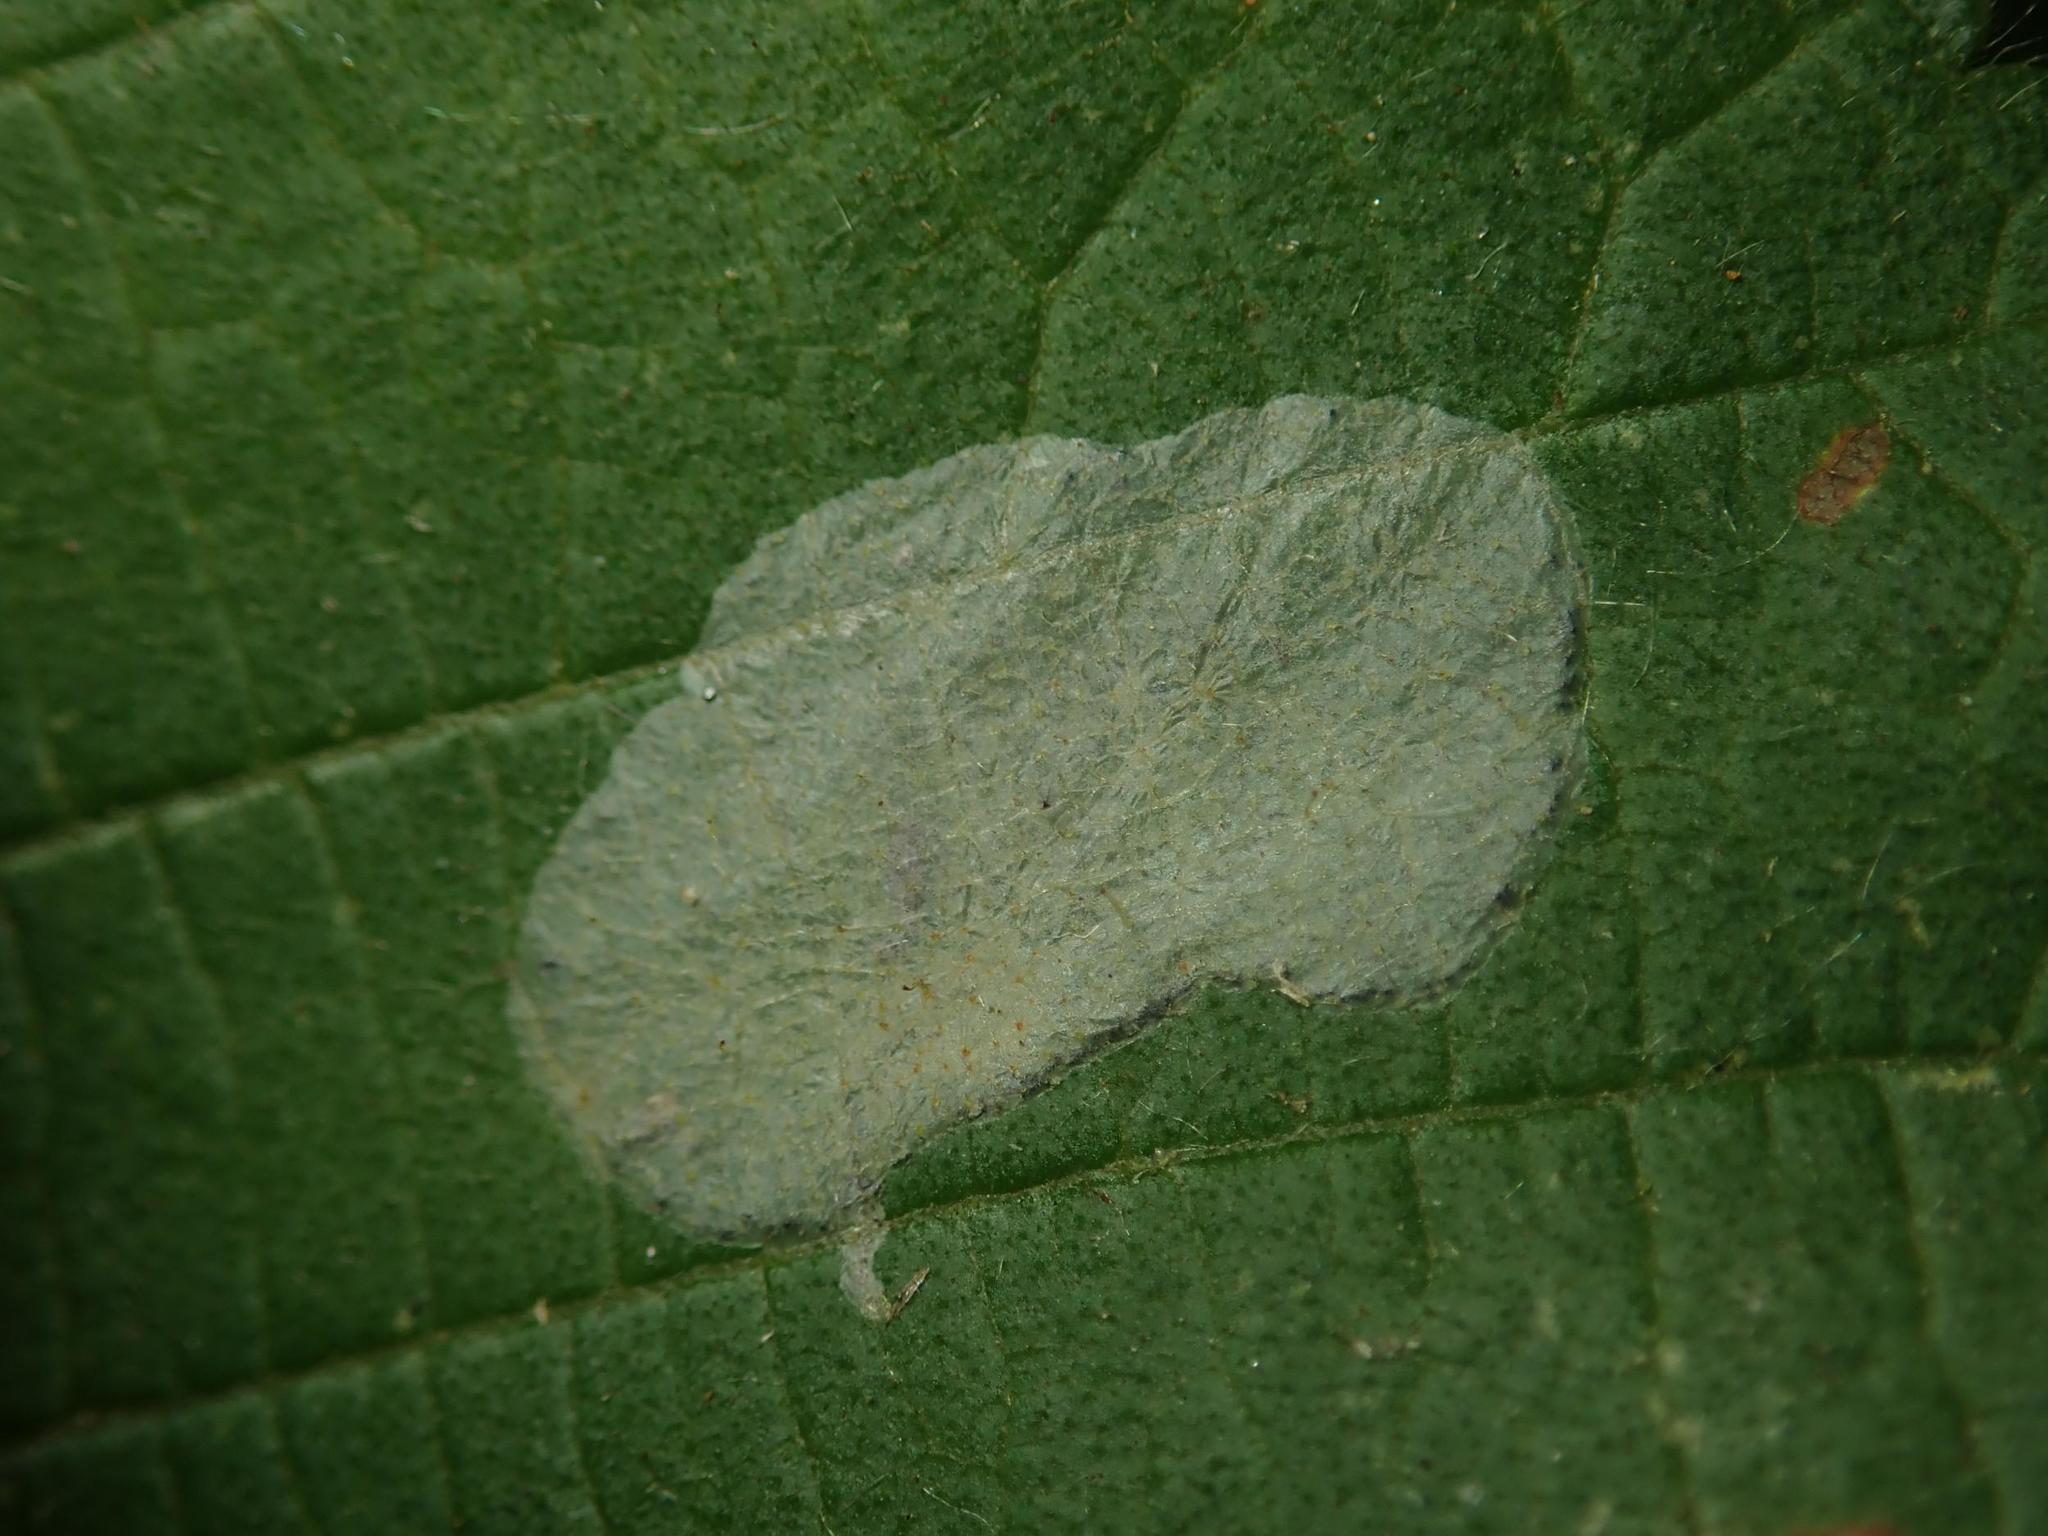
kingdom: Animalia
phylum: Arthropoda
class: Insecta
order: Lepidoptera
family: Gracillariidae
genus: Phyllonorycter
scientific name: Phyllonorycter coryli
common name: Nut-leaf blister moth
